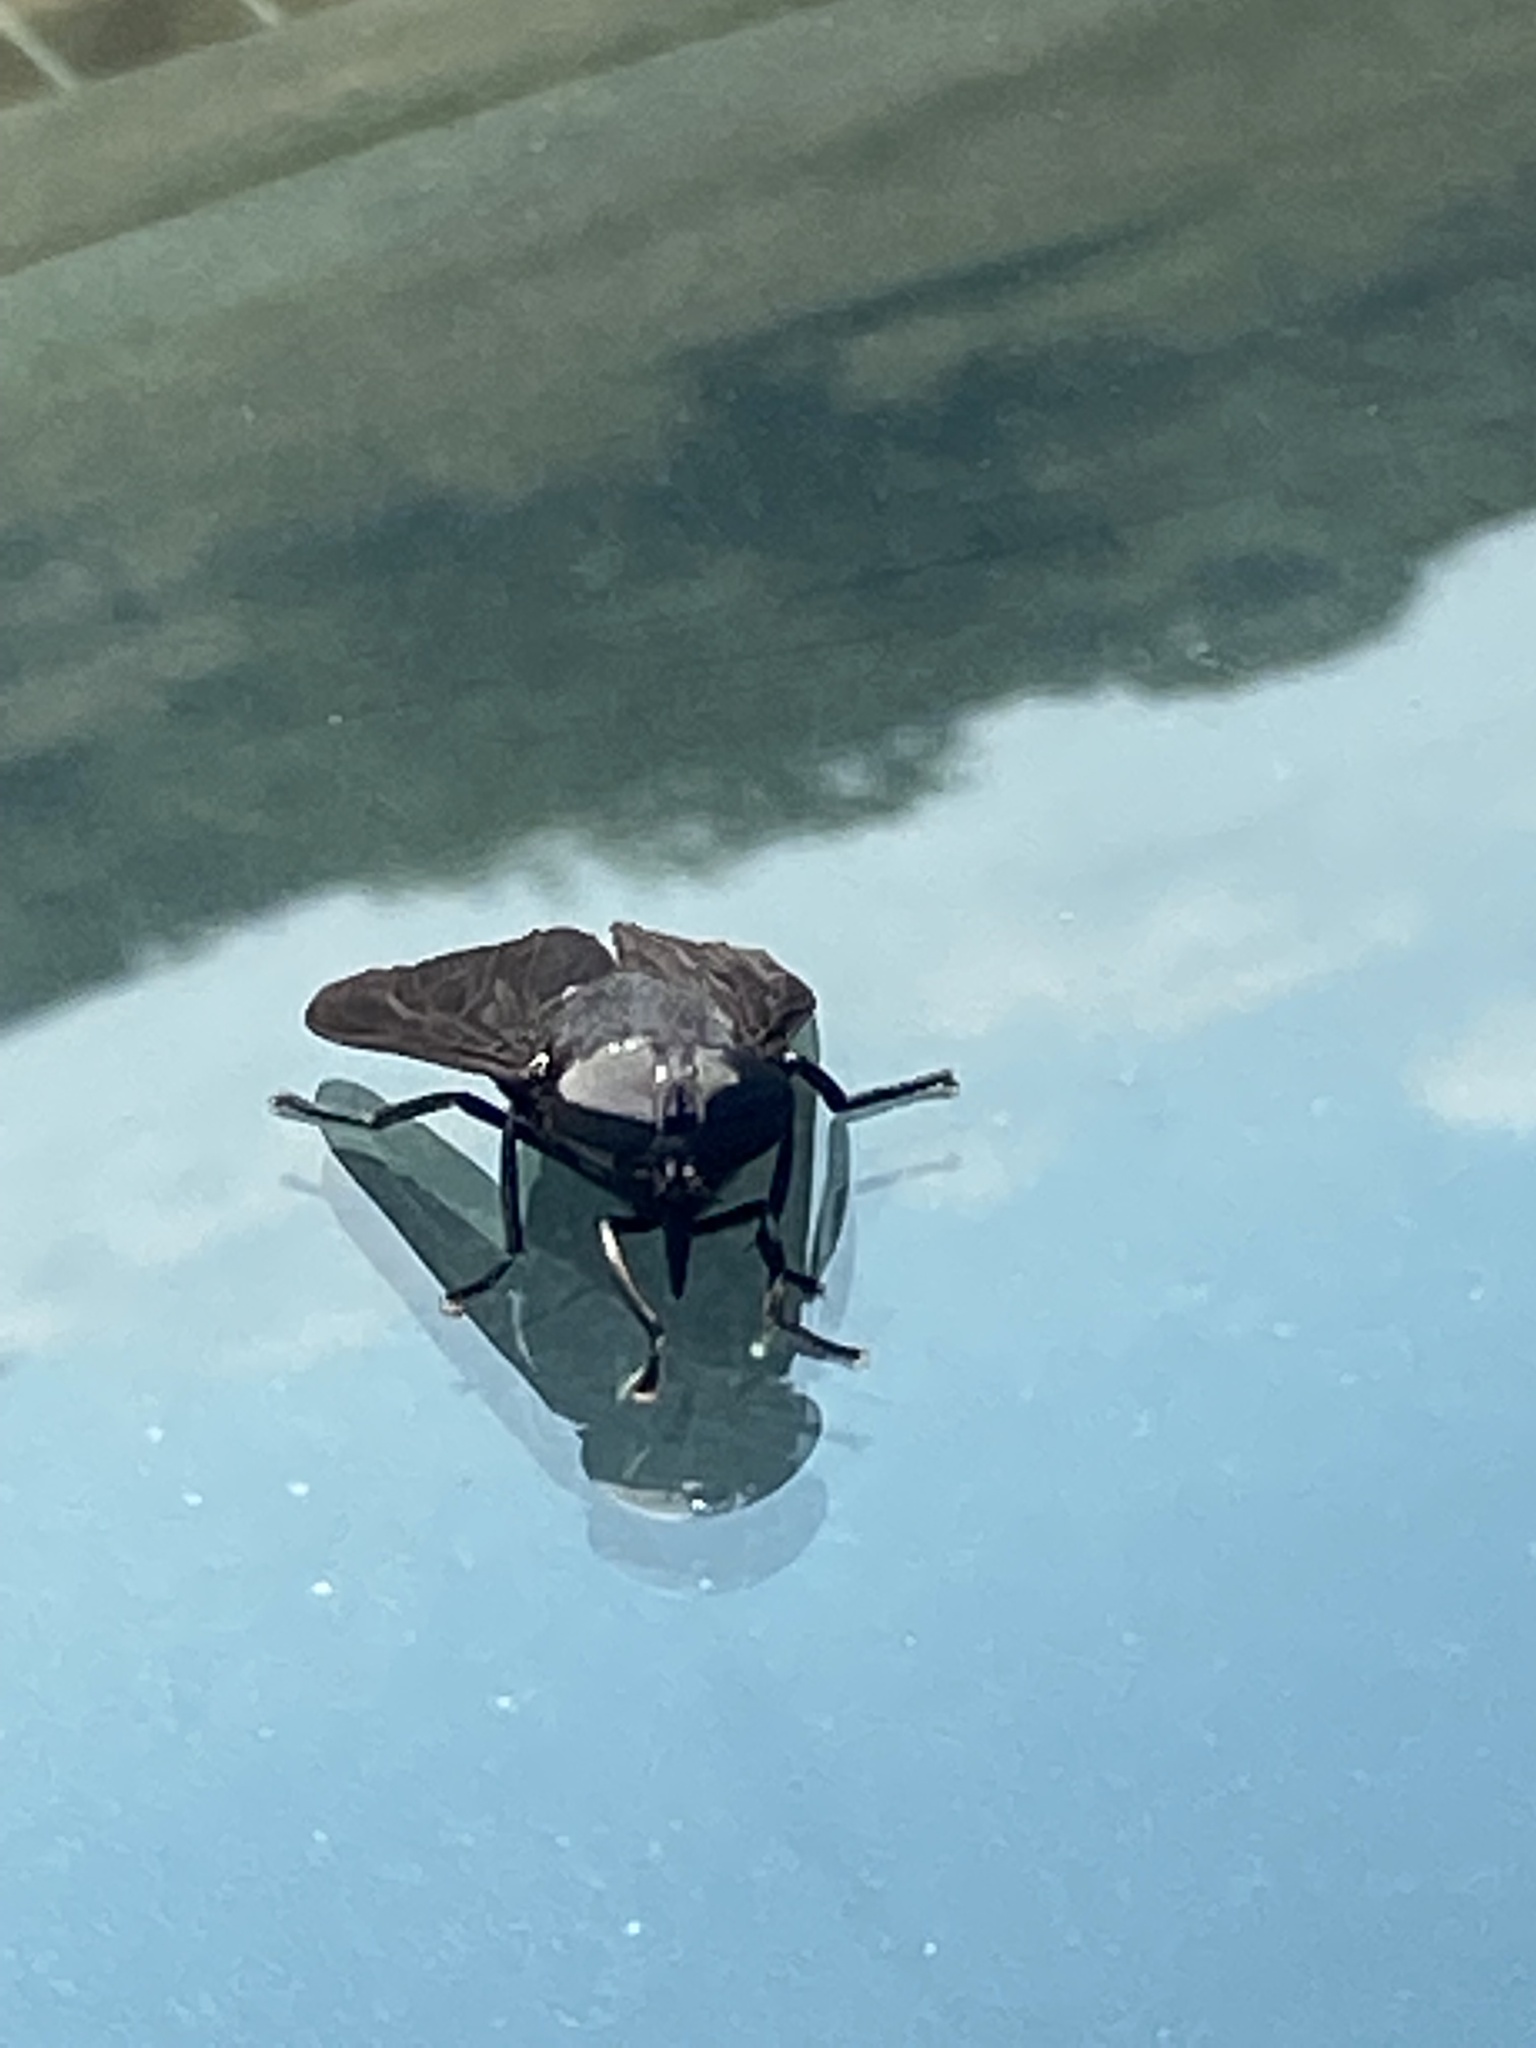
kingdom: Animalia
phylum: Arthropoda
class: Insecta
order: Diptera
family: Tabanidae
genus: Tabanus
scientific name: Tabanus atratus
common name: Black horse fly
